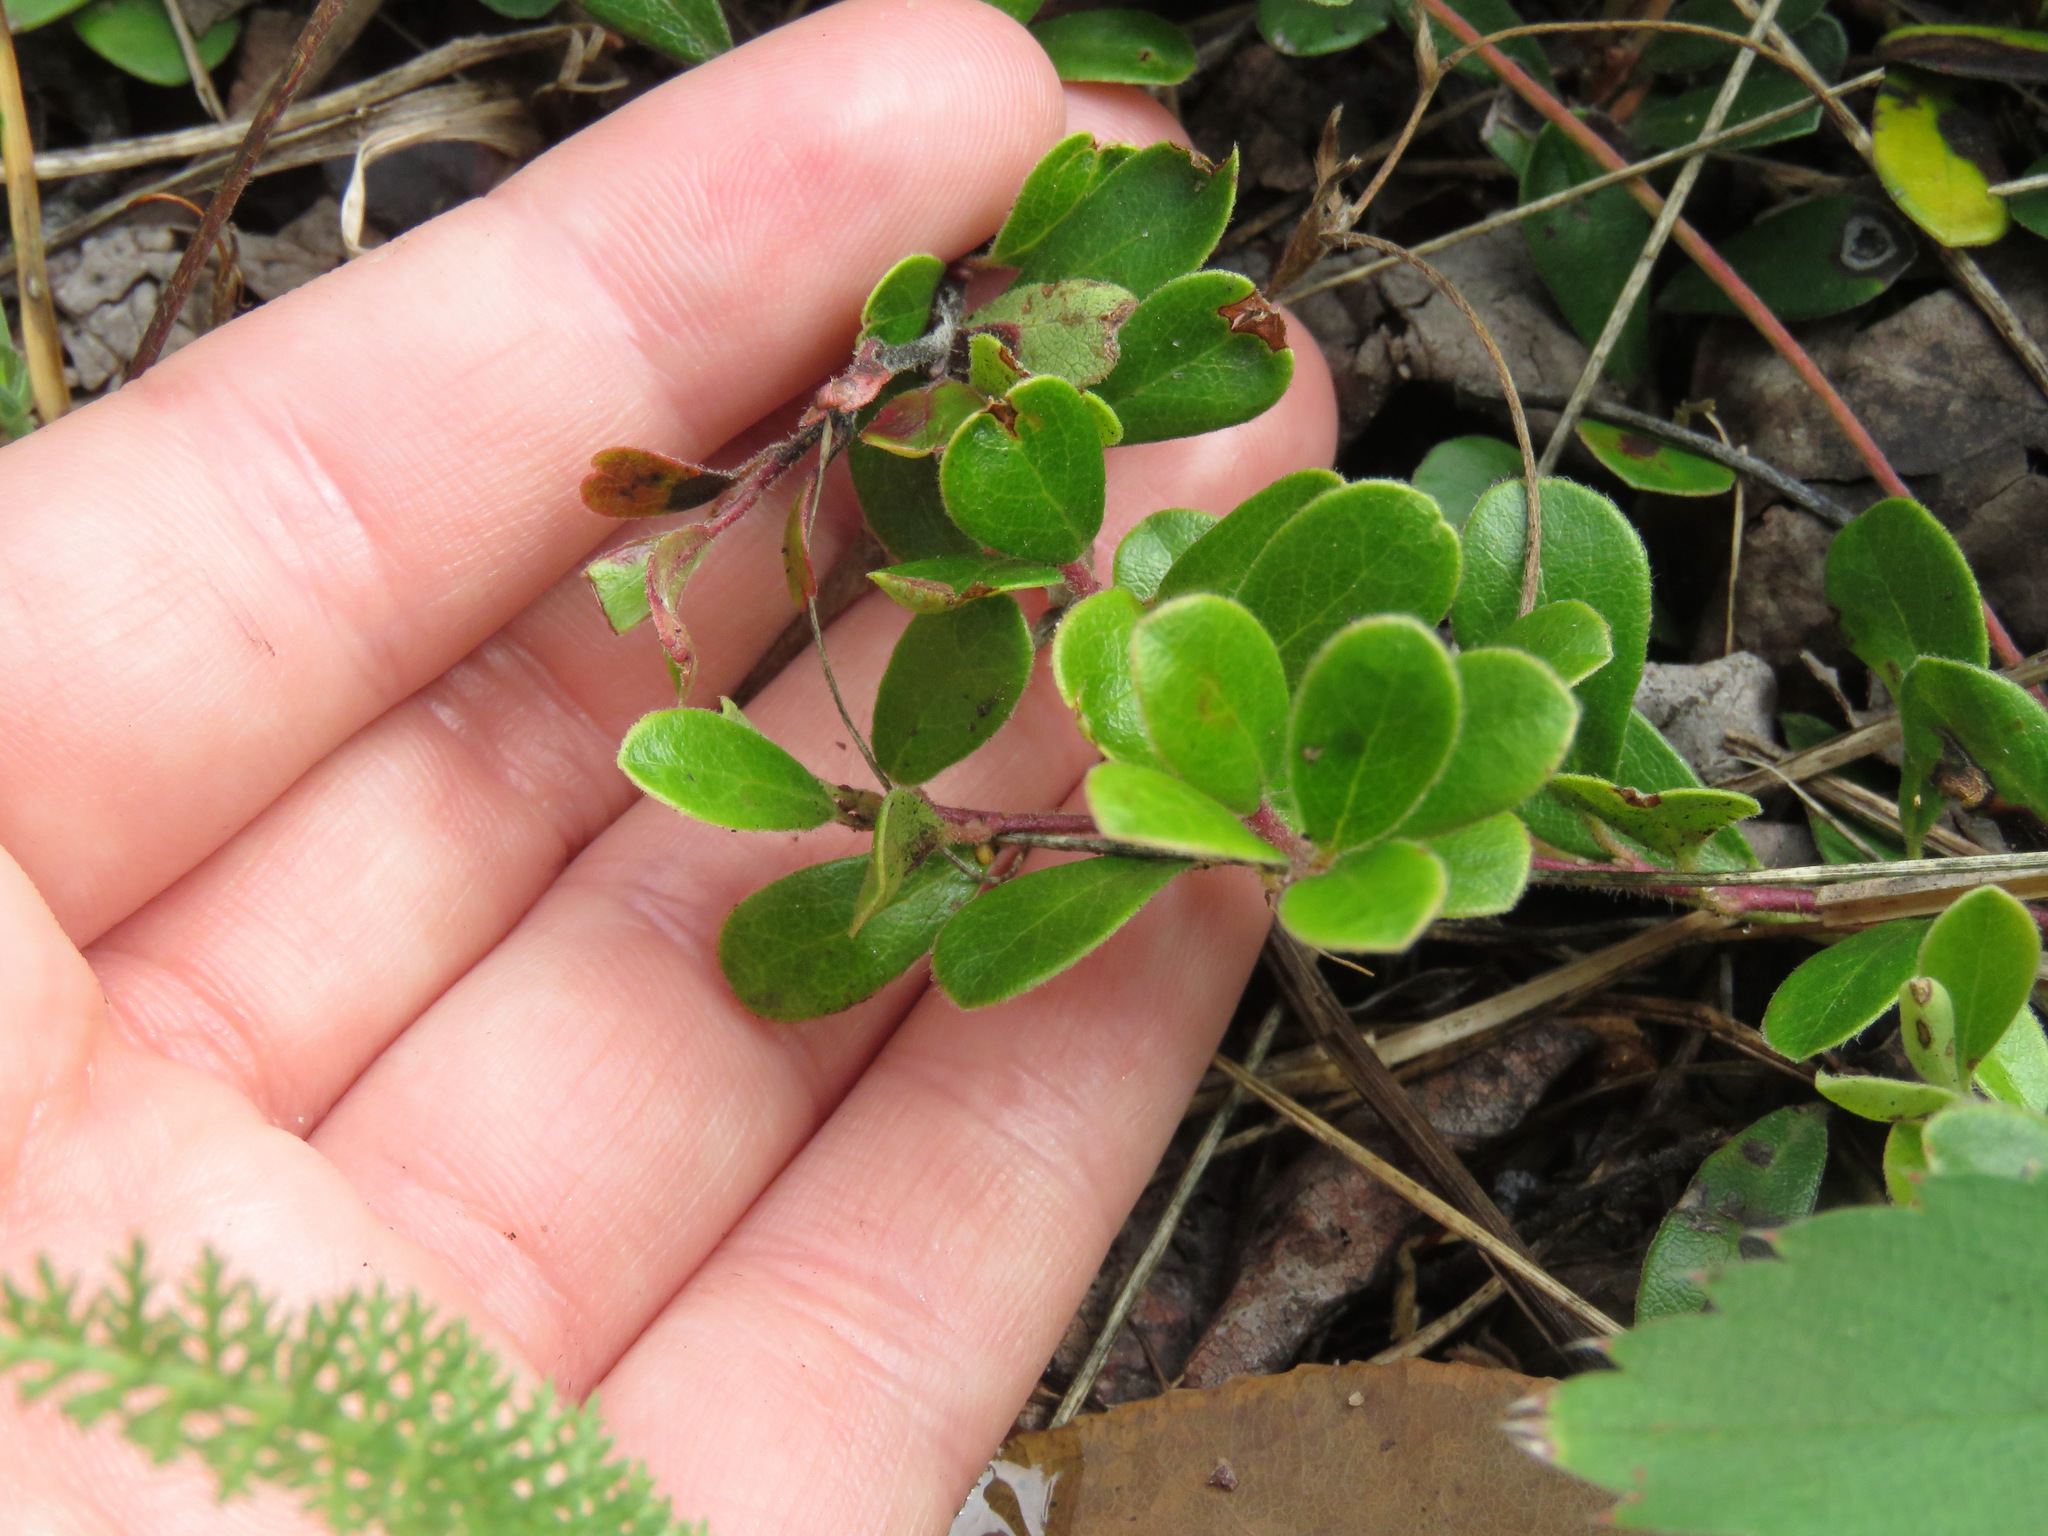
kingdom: Plantae
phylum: Tracheophyta
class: Magnoliopsida
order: Ericales
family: Ericaceae
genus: Arctostaphylos
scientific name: Arctostaphylos uva-ursi
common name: Bearberry
